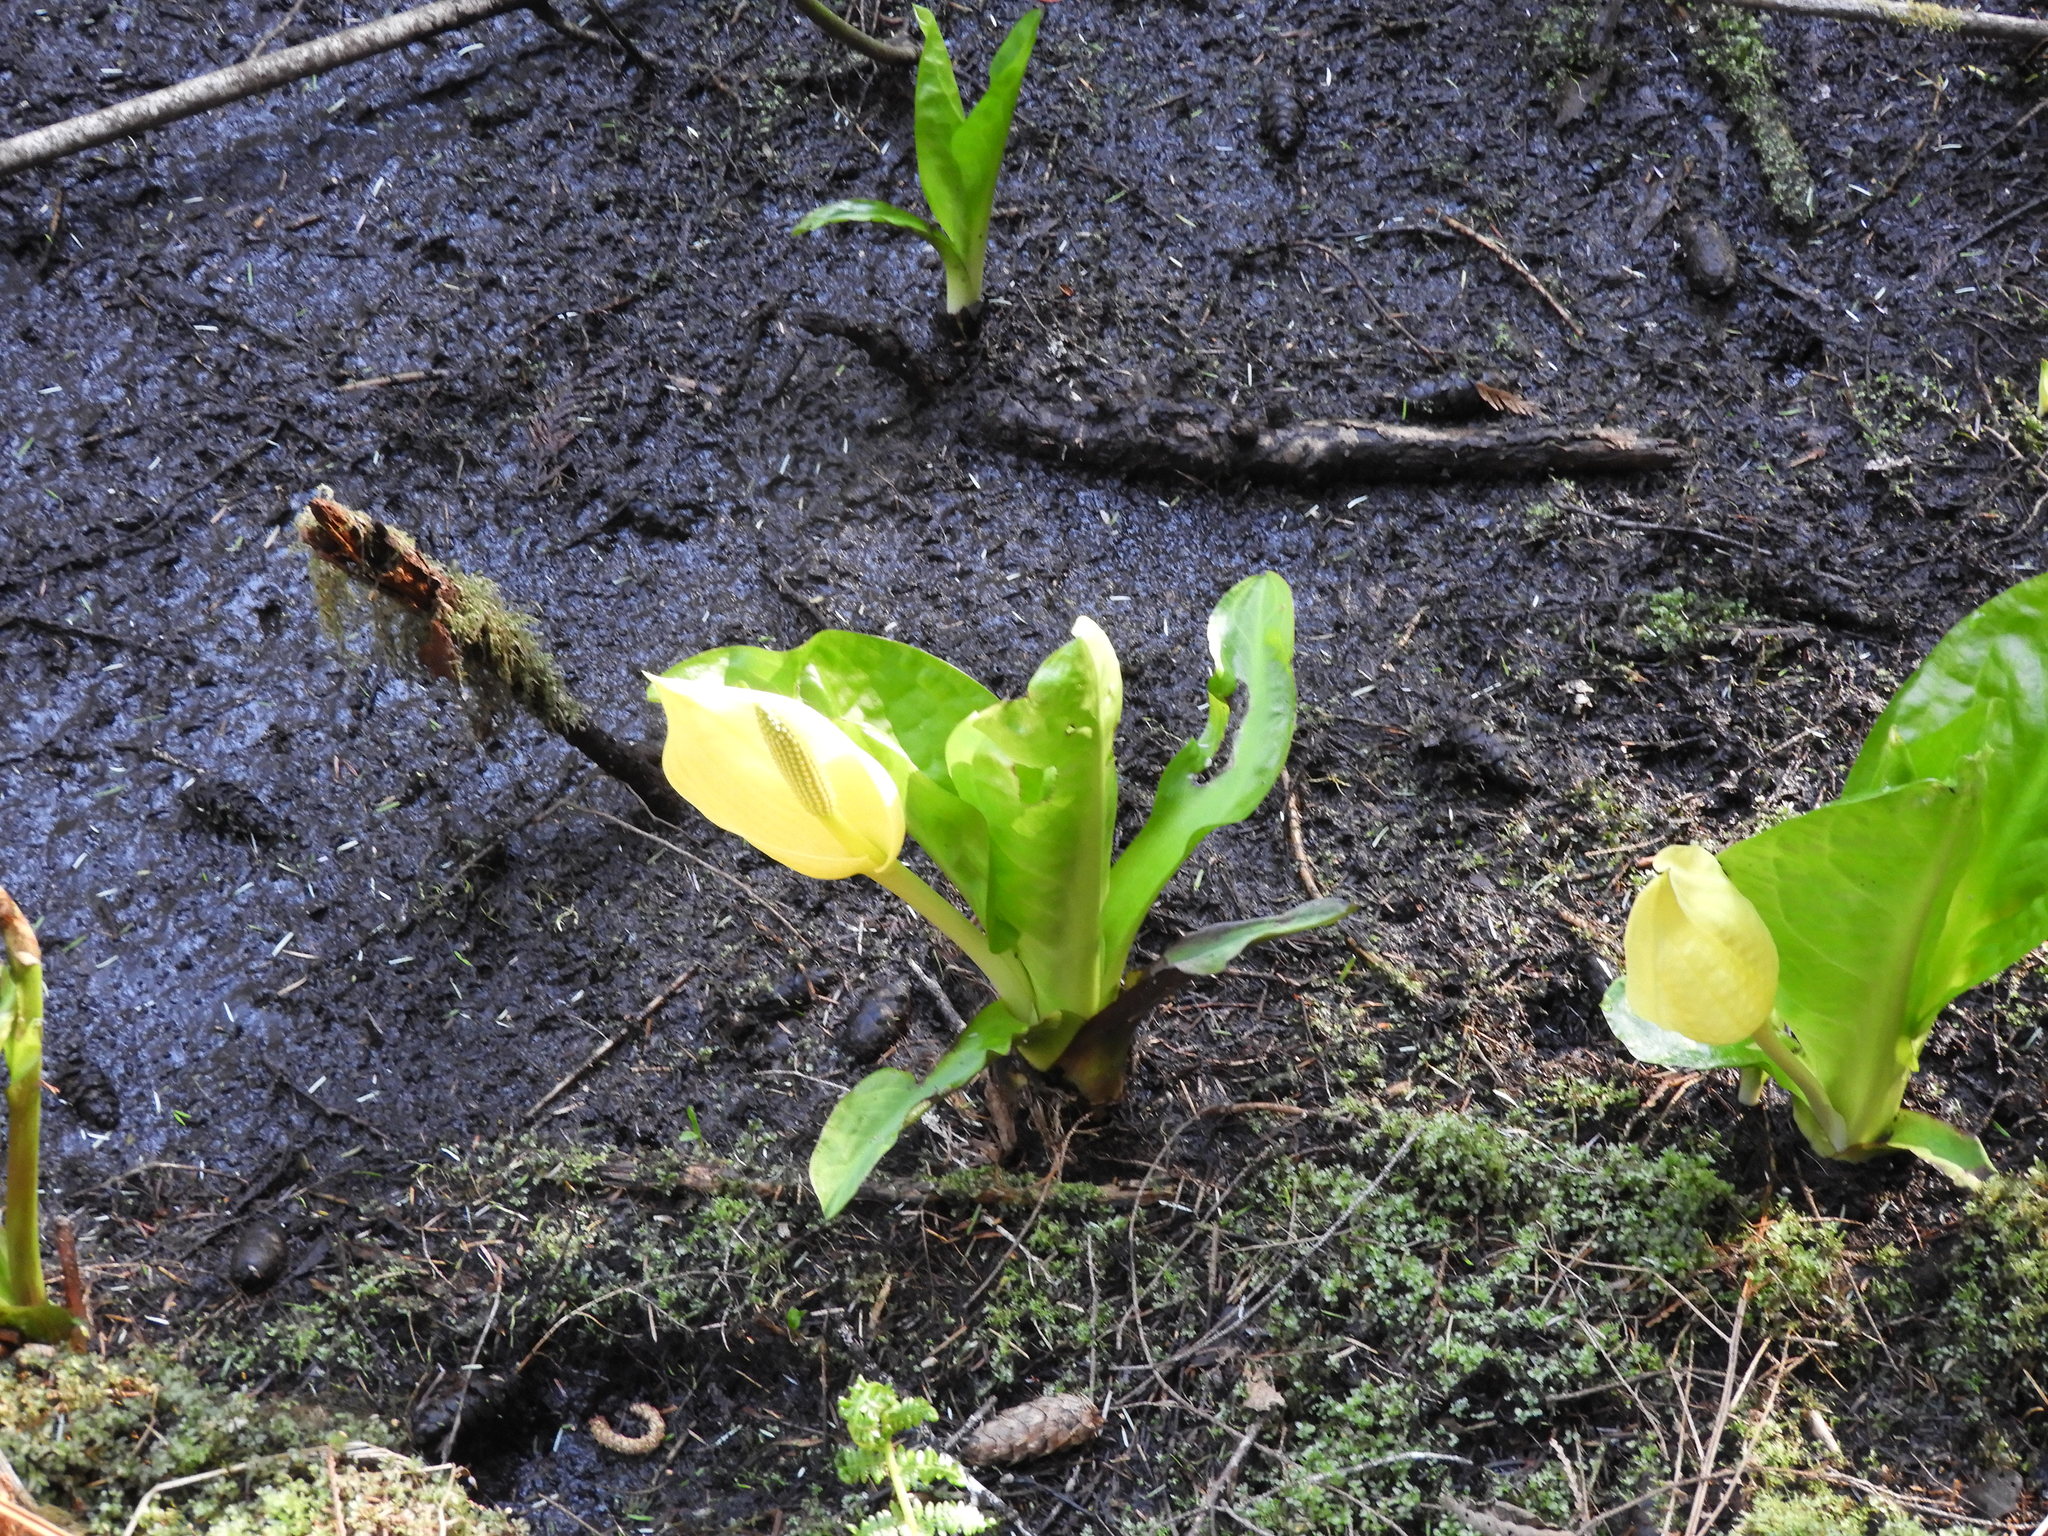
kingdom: Plantae
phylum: Tracheophyta
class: Liliopsida
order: Alismatales
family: Araceae
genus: Lysichiton
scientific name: Lysichiton americanus
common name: American skunk cabbage
